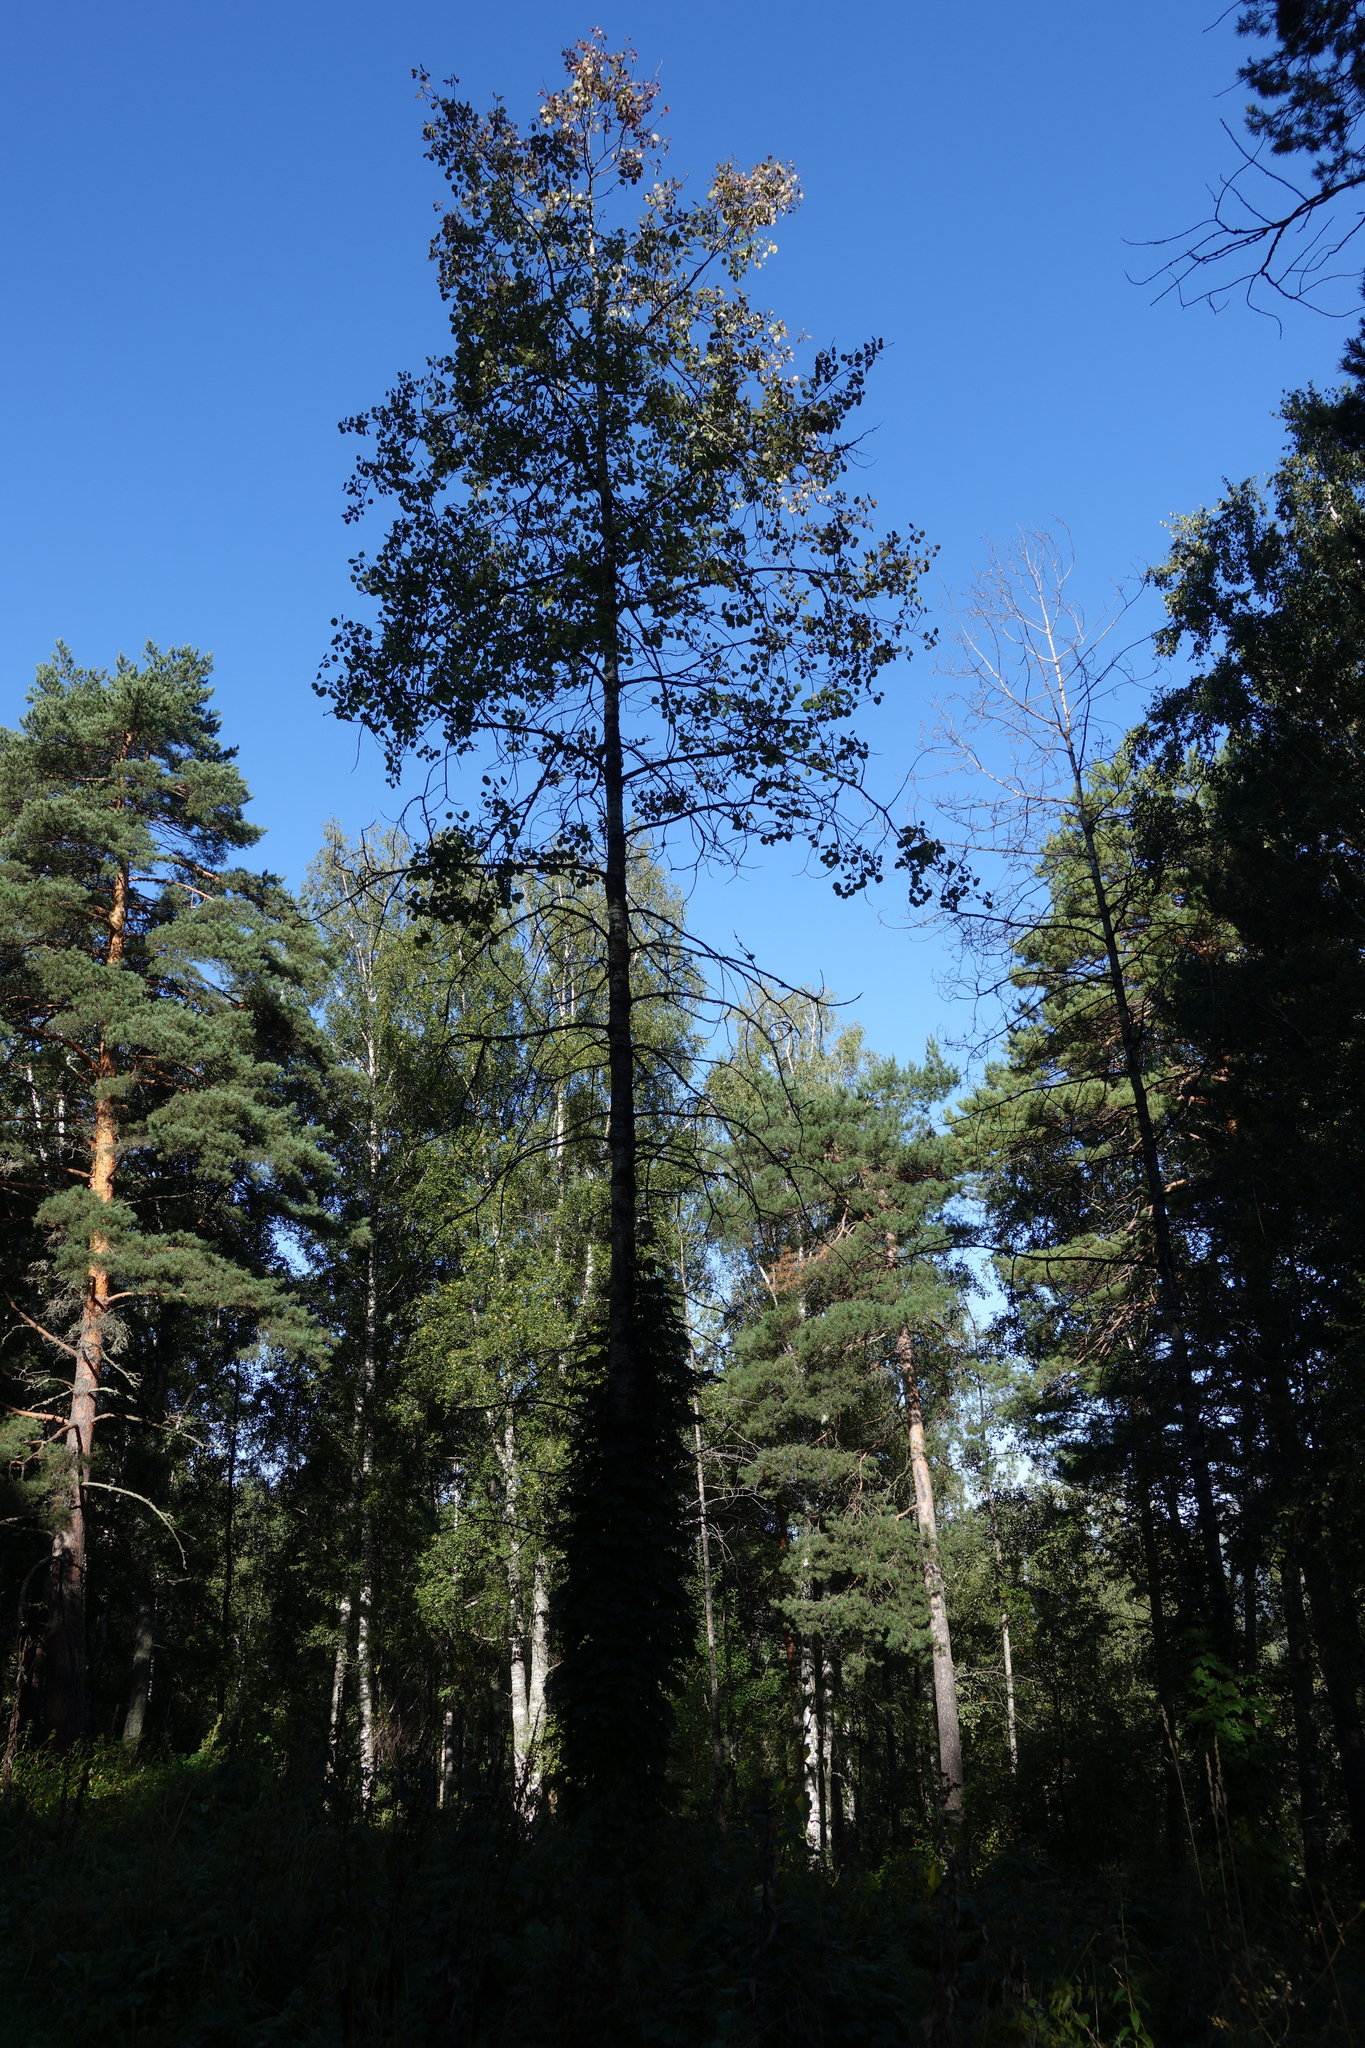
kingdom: Plantae
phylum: Tracheophyta
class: Magnoliopsida
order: Malpighiales
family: Salicaceae
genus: Populus
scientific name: Populus tremula
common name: European aspen
